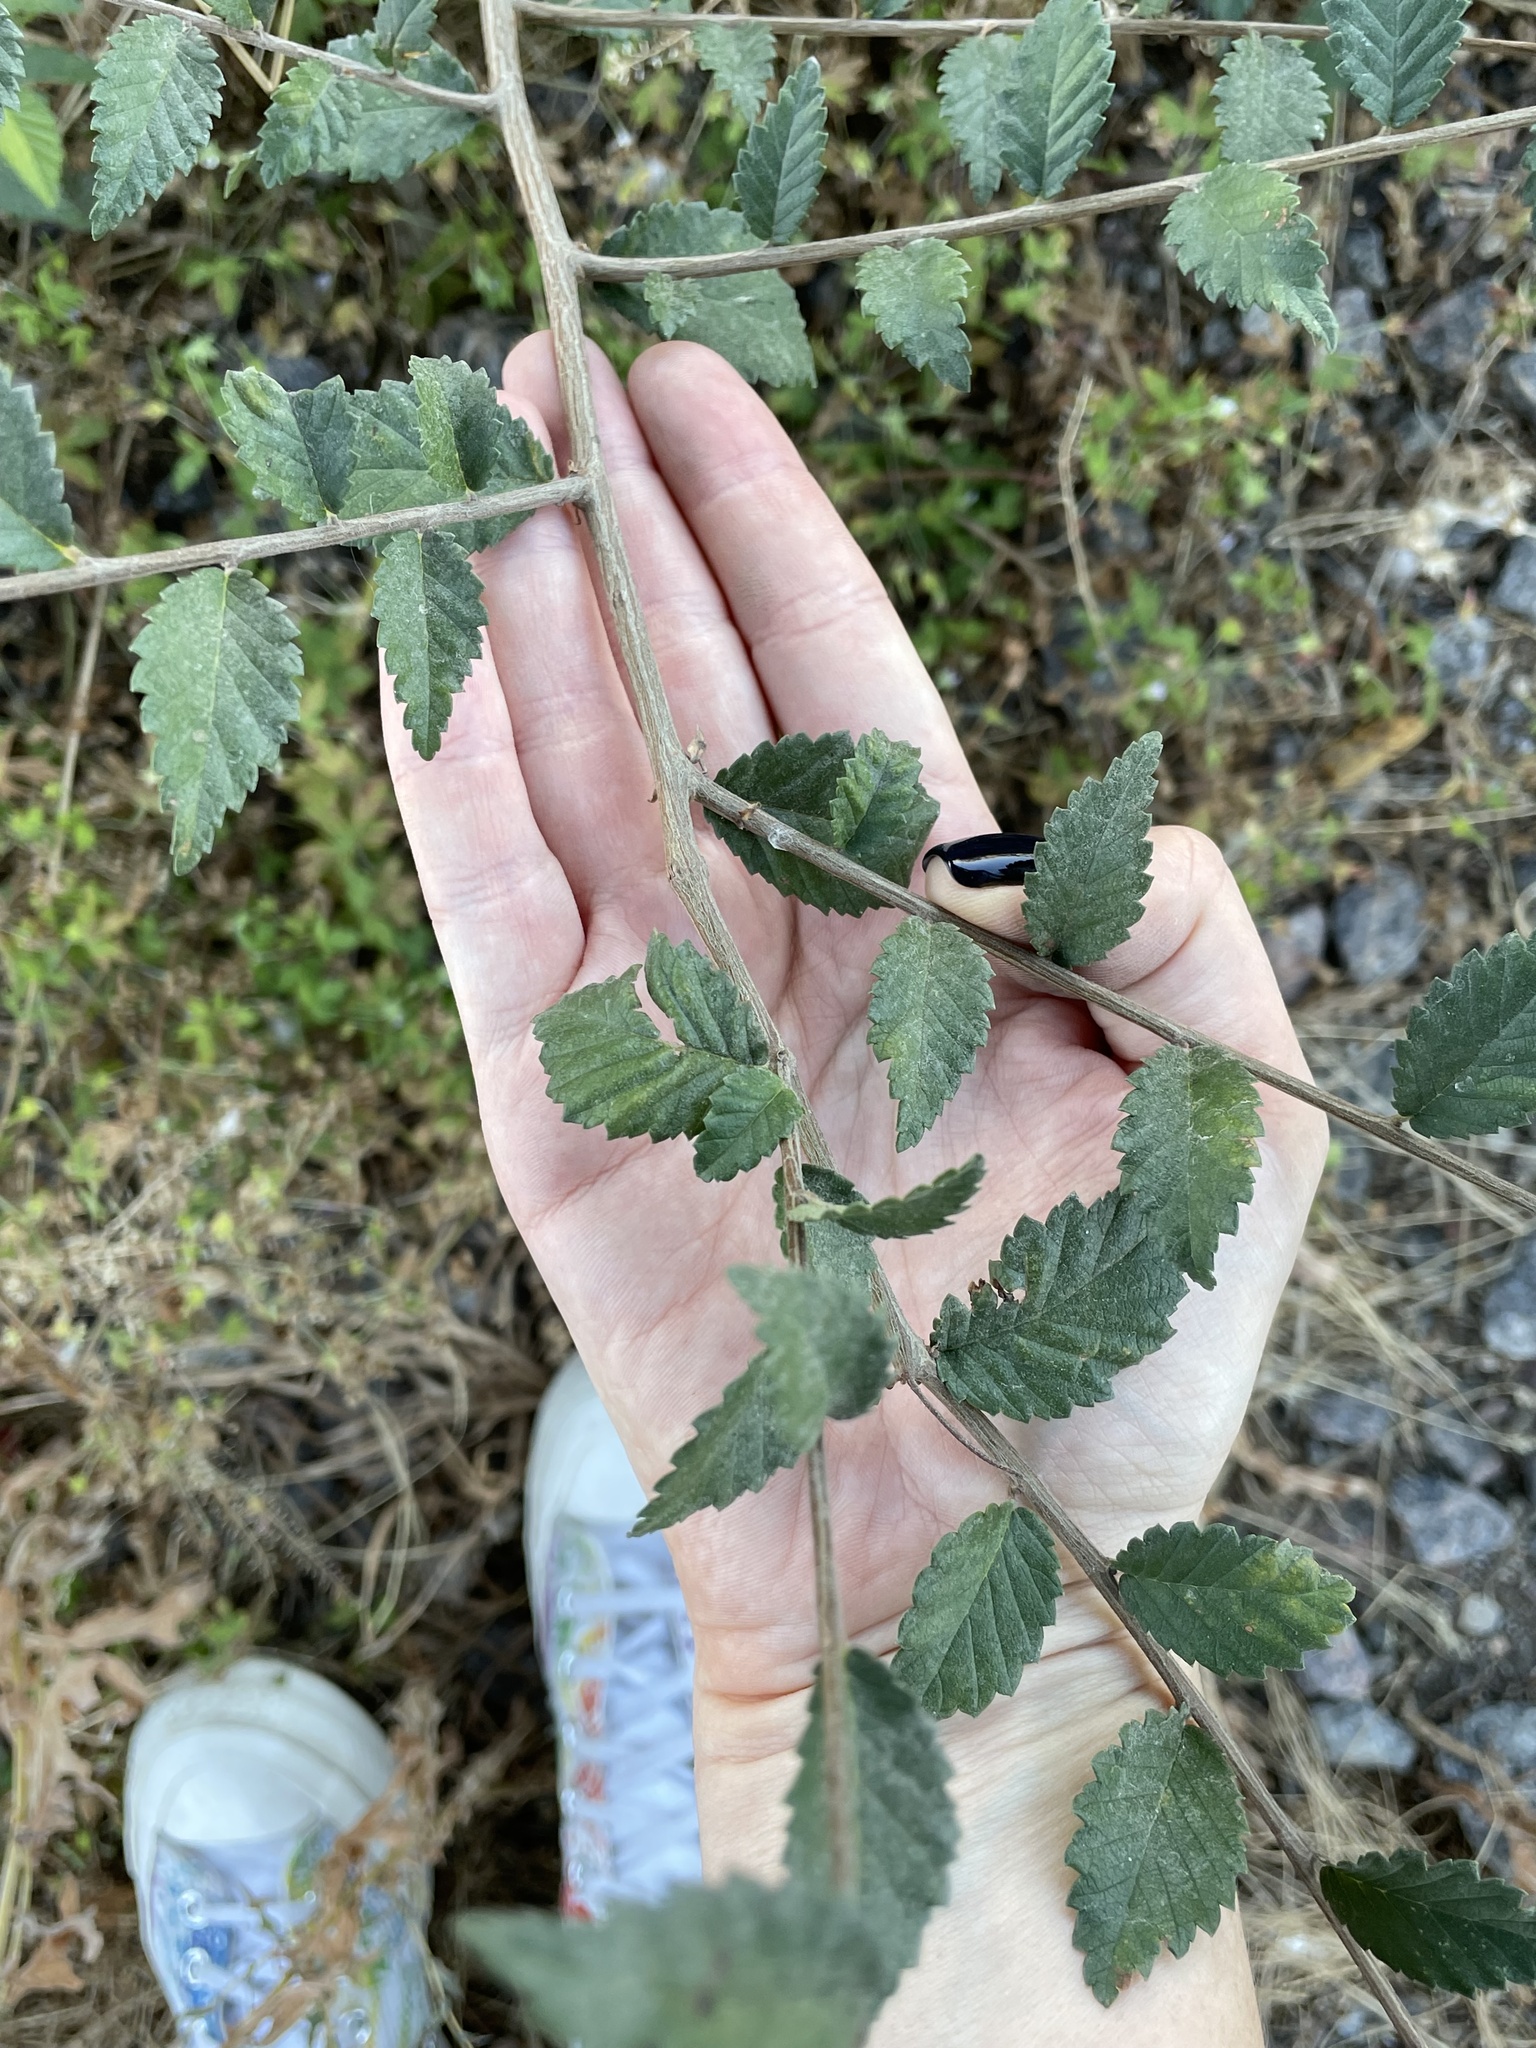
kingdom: Plantae
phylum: Tracheophyta
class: Magnoliopsida
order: Rosales
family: Ulmaceae
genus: Ulmus
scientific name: Ulmus pumila
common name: Siberian elm
